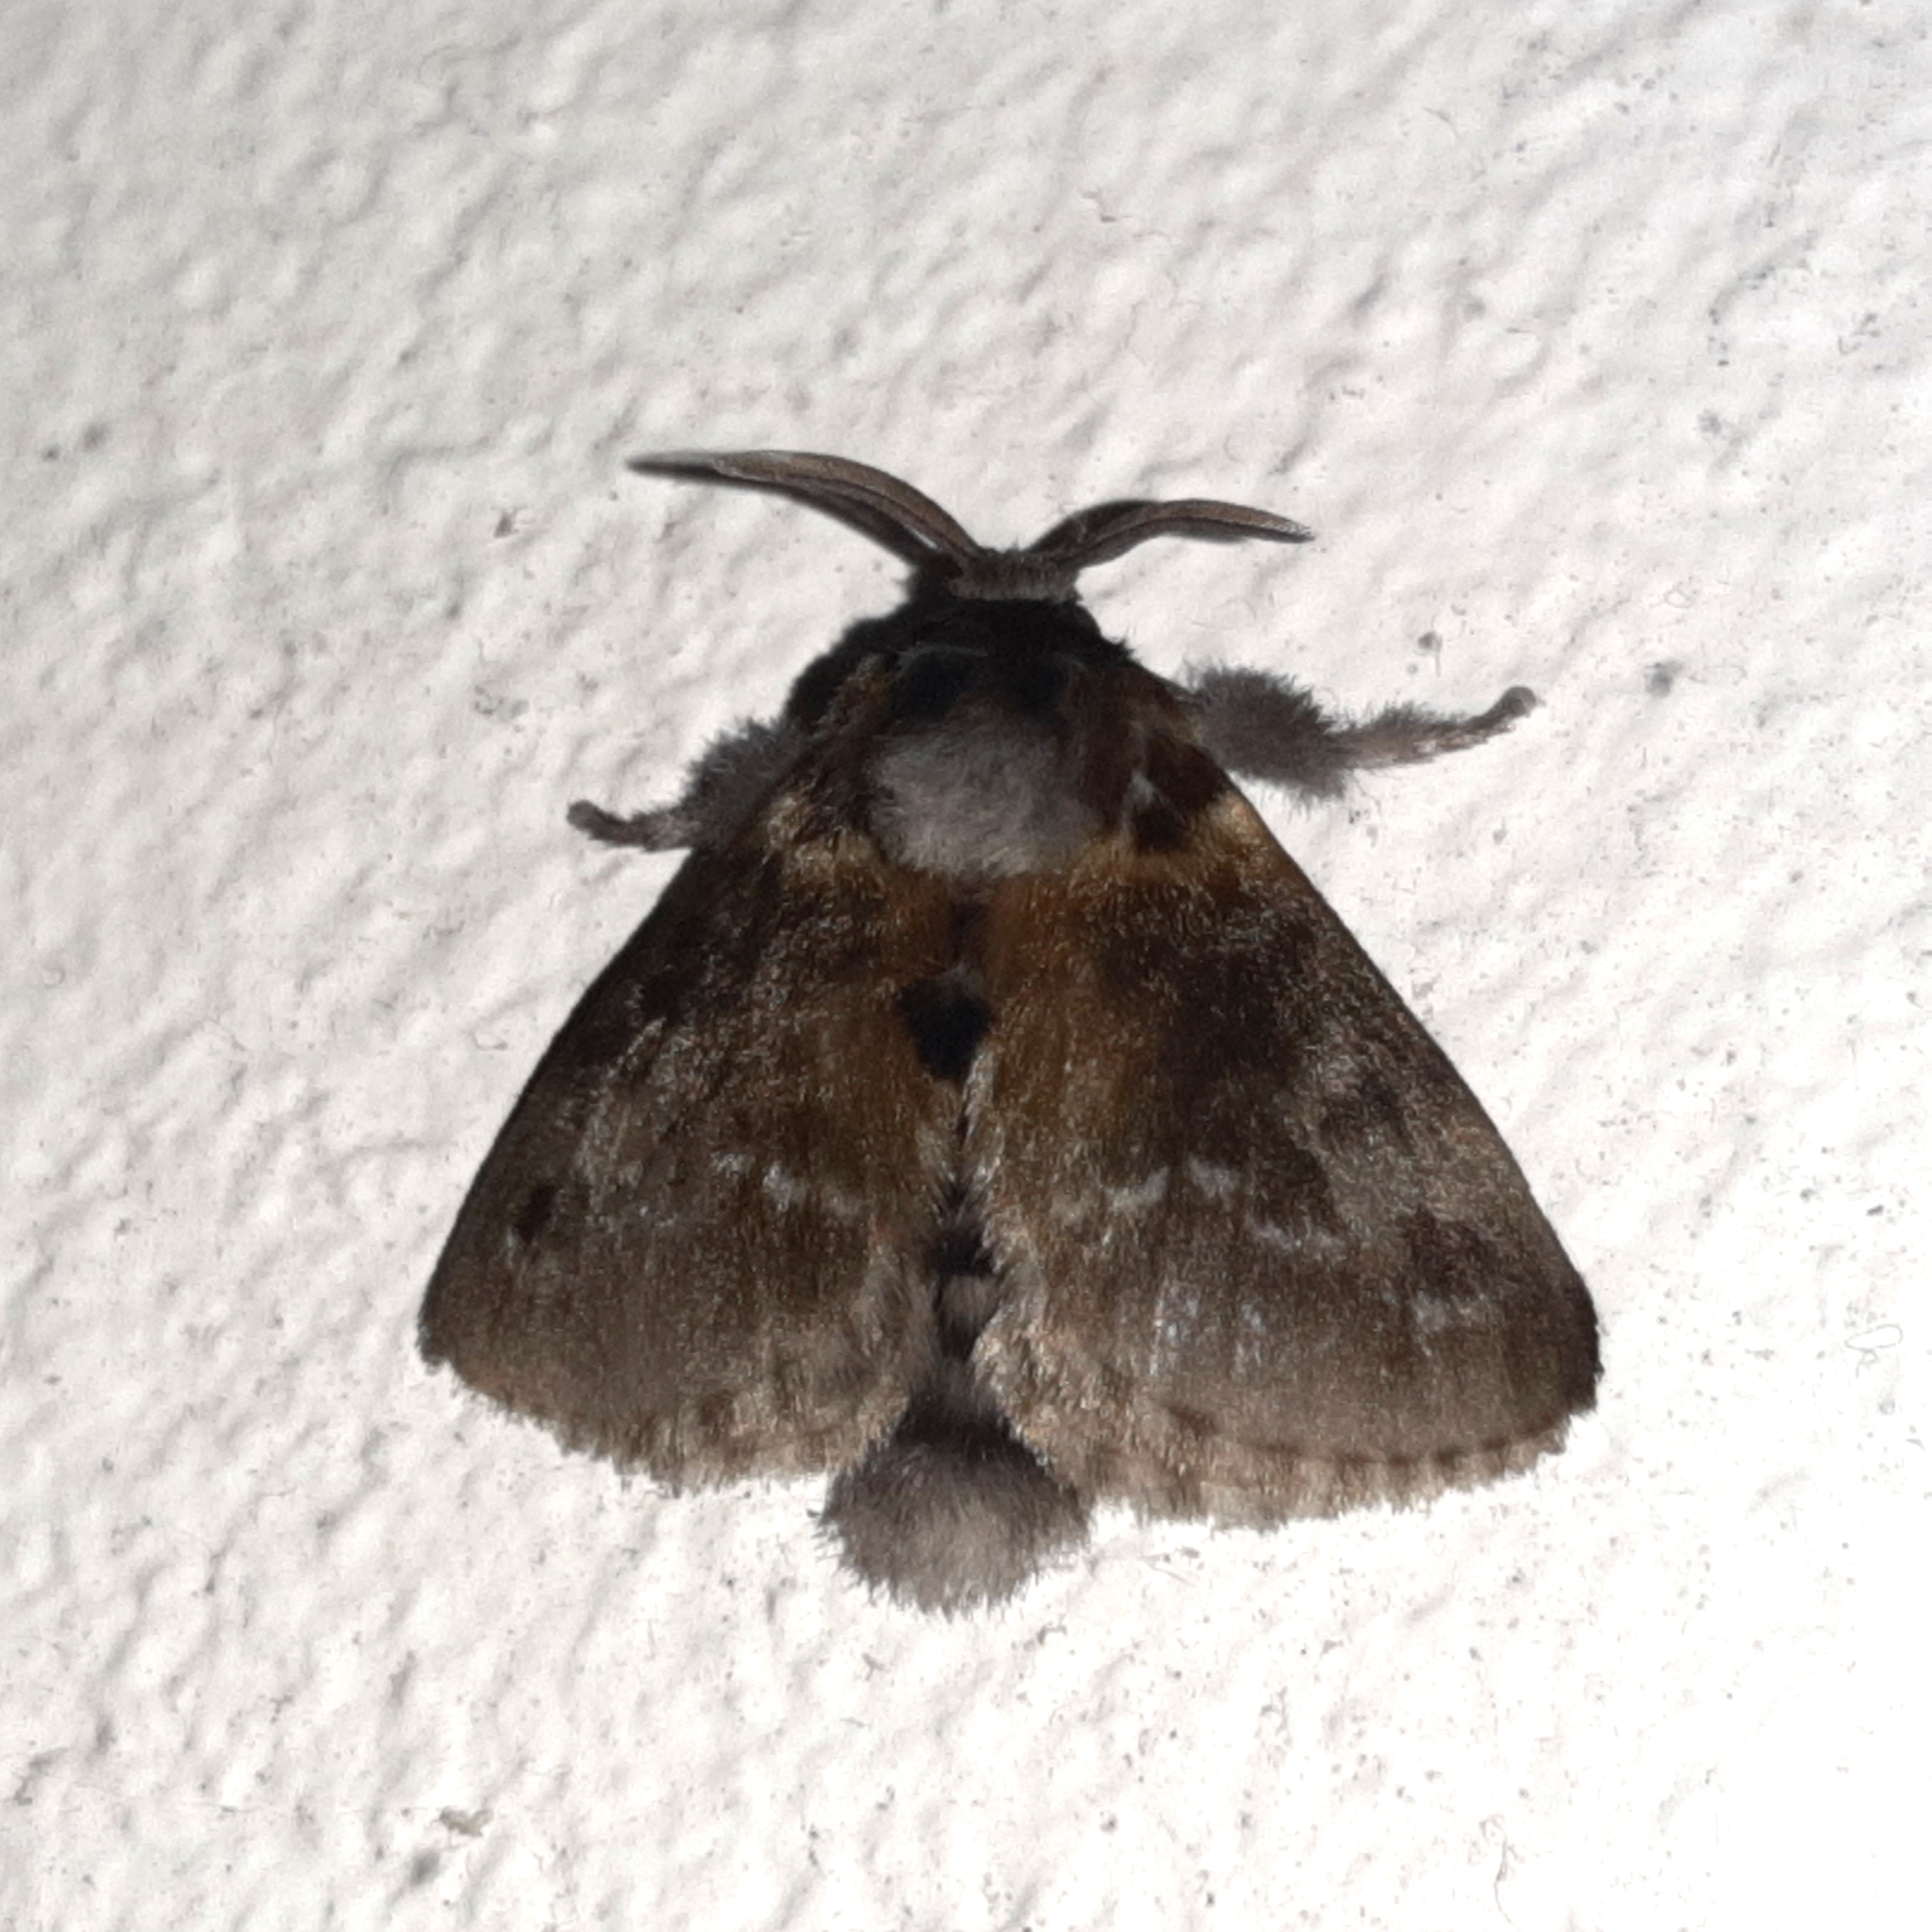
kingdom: Animalia
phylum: Arthropoda
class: Insecta
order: Lepidoptera
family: Megalopygidae
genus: Podalia
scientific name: Podalia habitus
